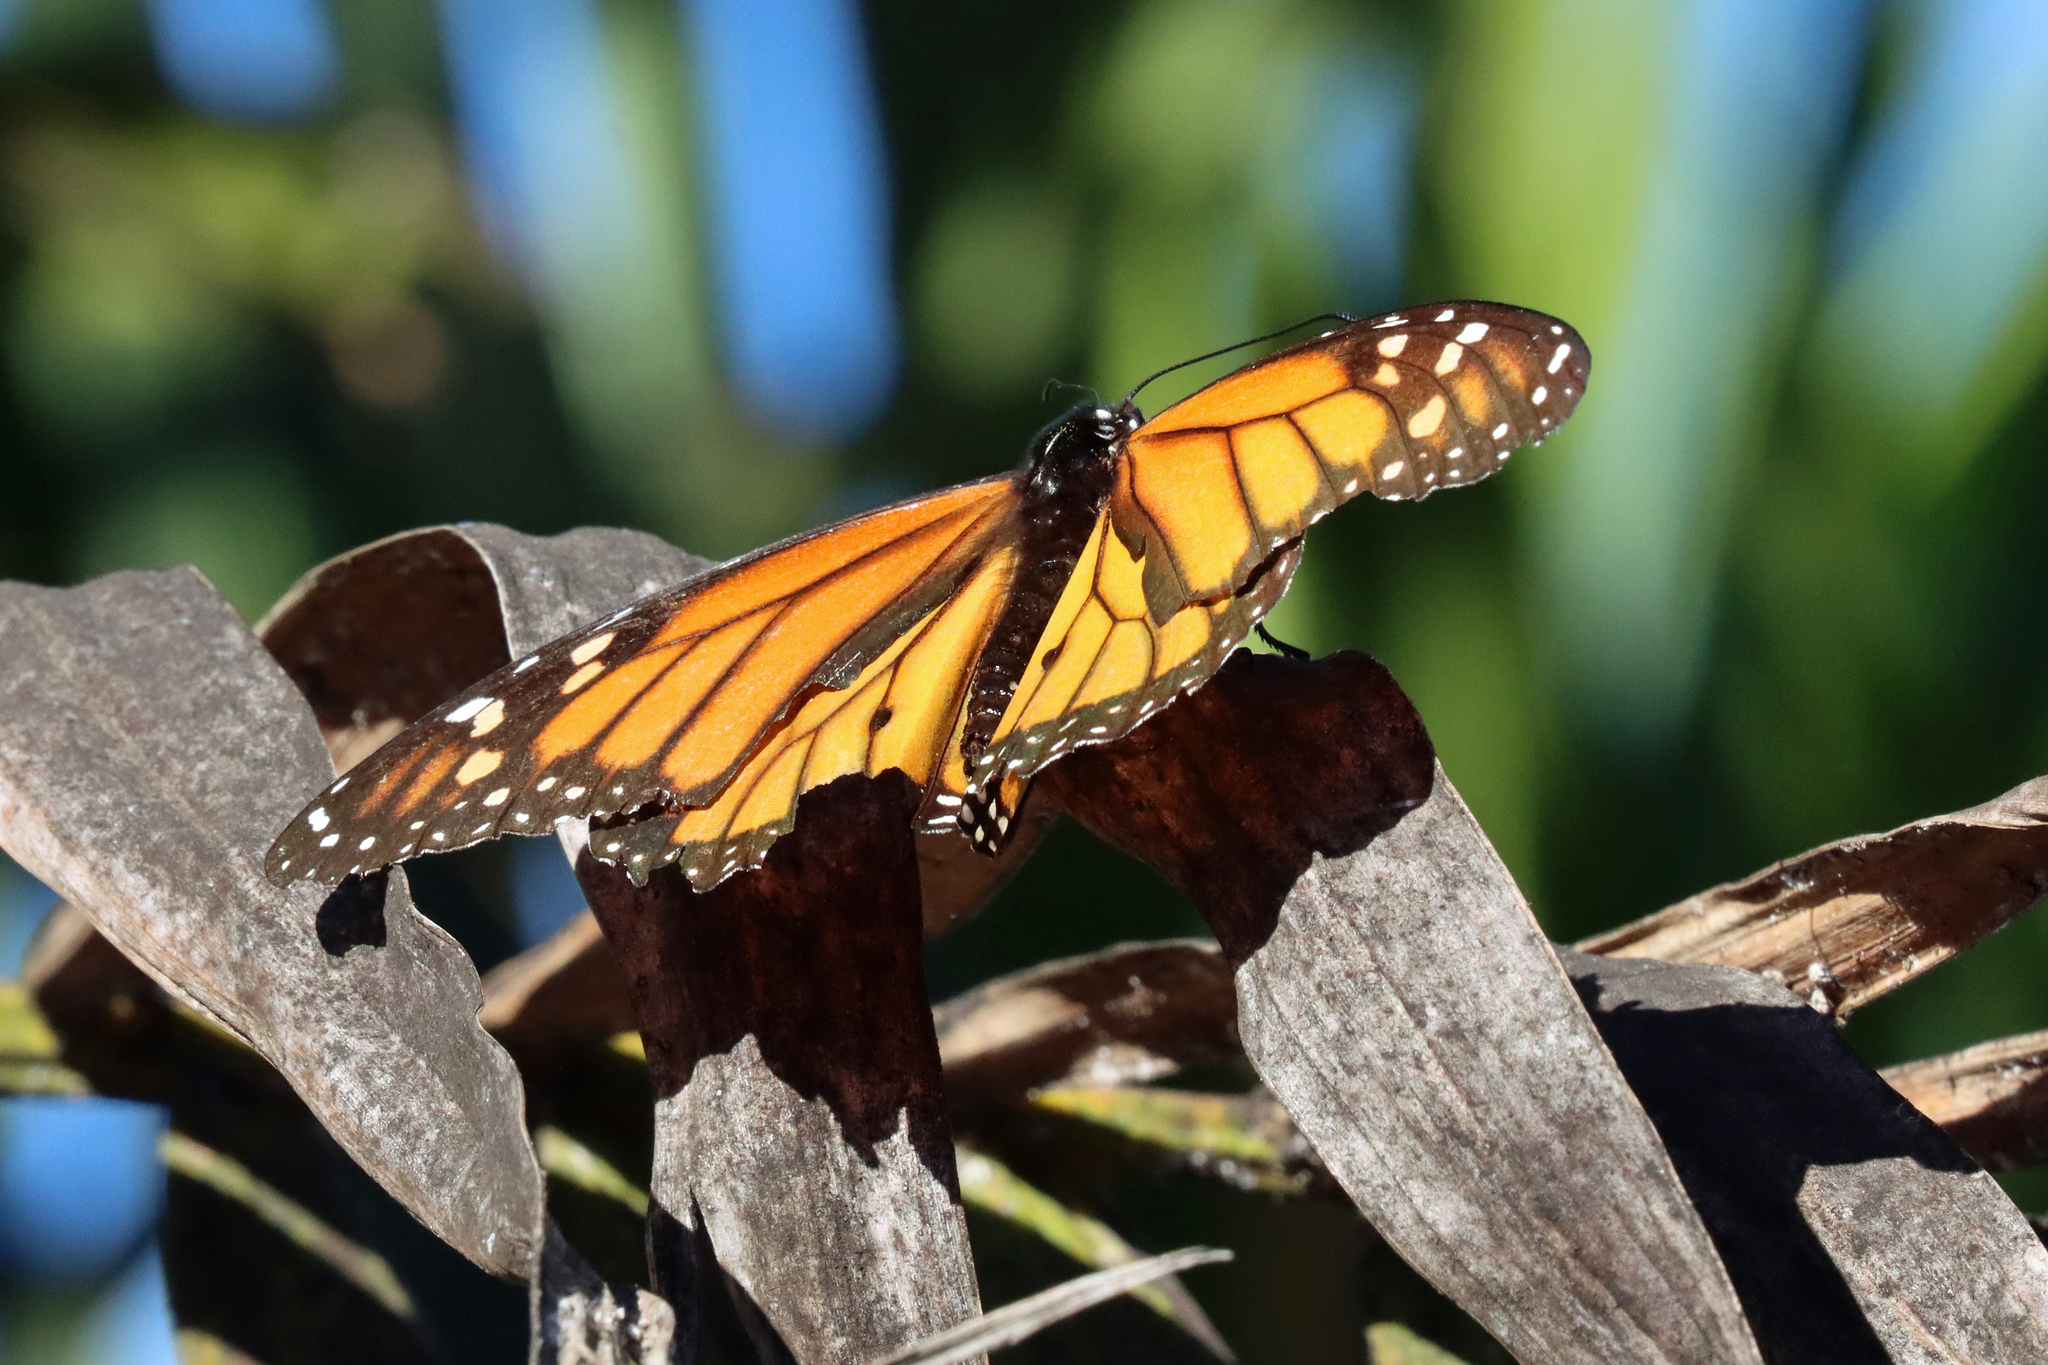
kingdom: Animalia
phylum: Arthropoda
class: Insecta
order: Lepidoptera
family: Nymphalidae
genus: Danaus
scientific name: Danaus plexippus
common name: Monarch
